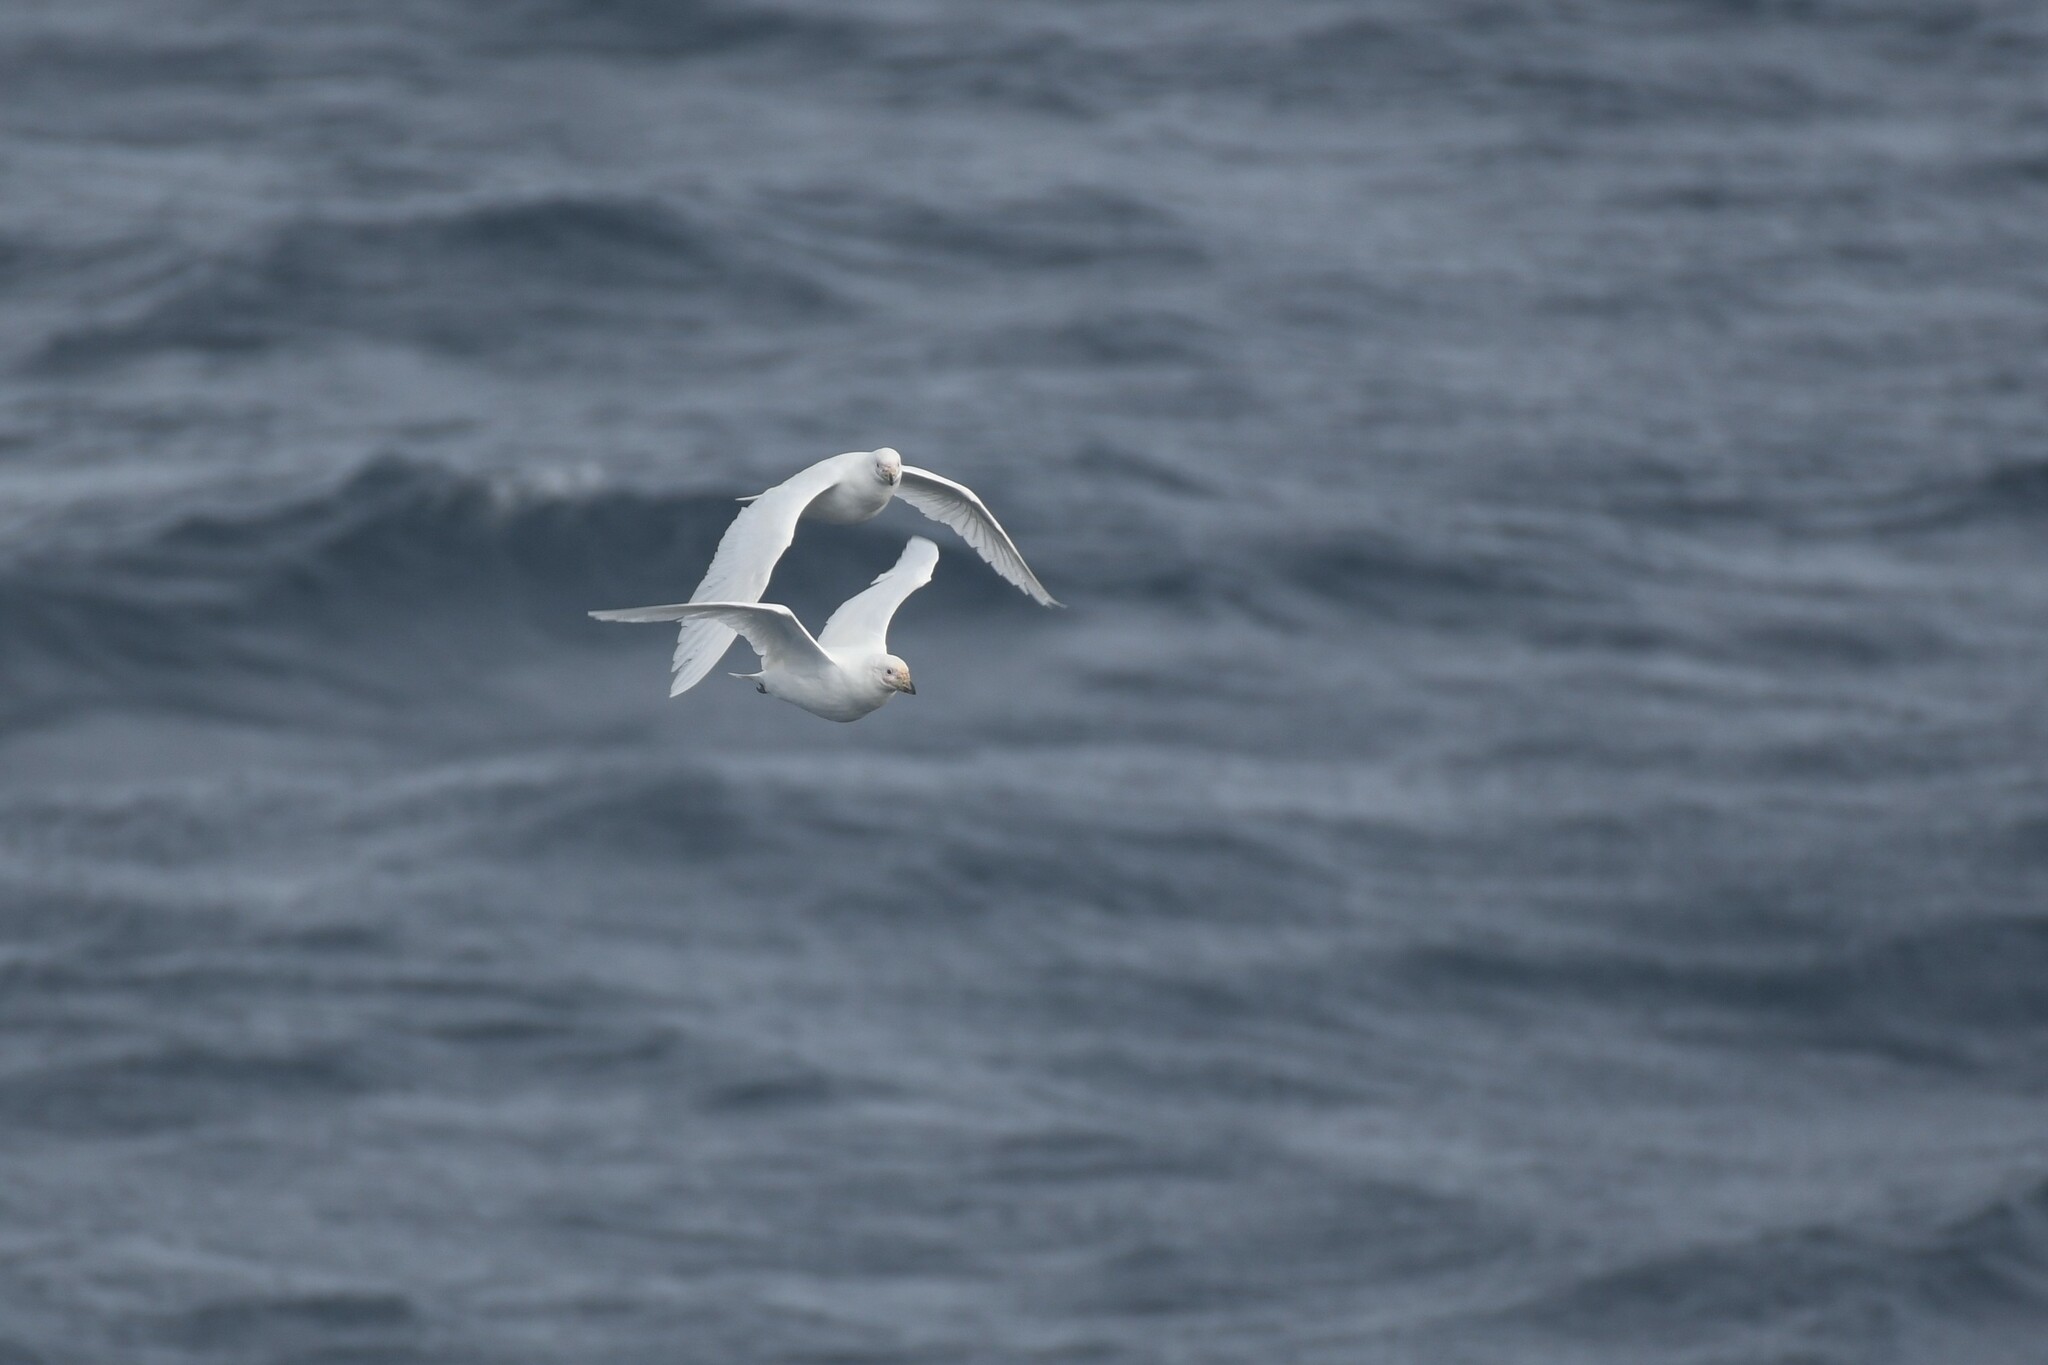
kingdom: Animalia
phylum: Chordata
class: Aves
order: Charadriiformes
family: Chionidae
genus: Chionis
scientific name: Chionis albus
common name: Snowy sheathbill
